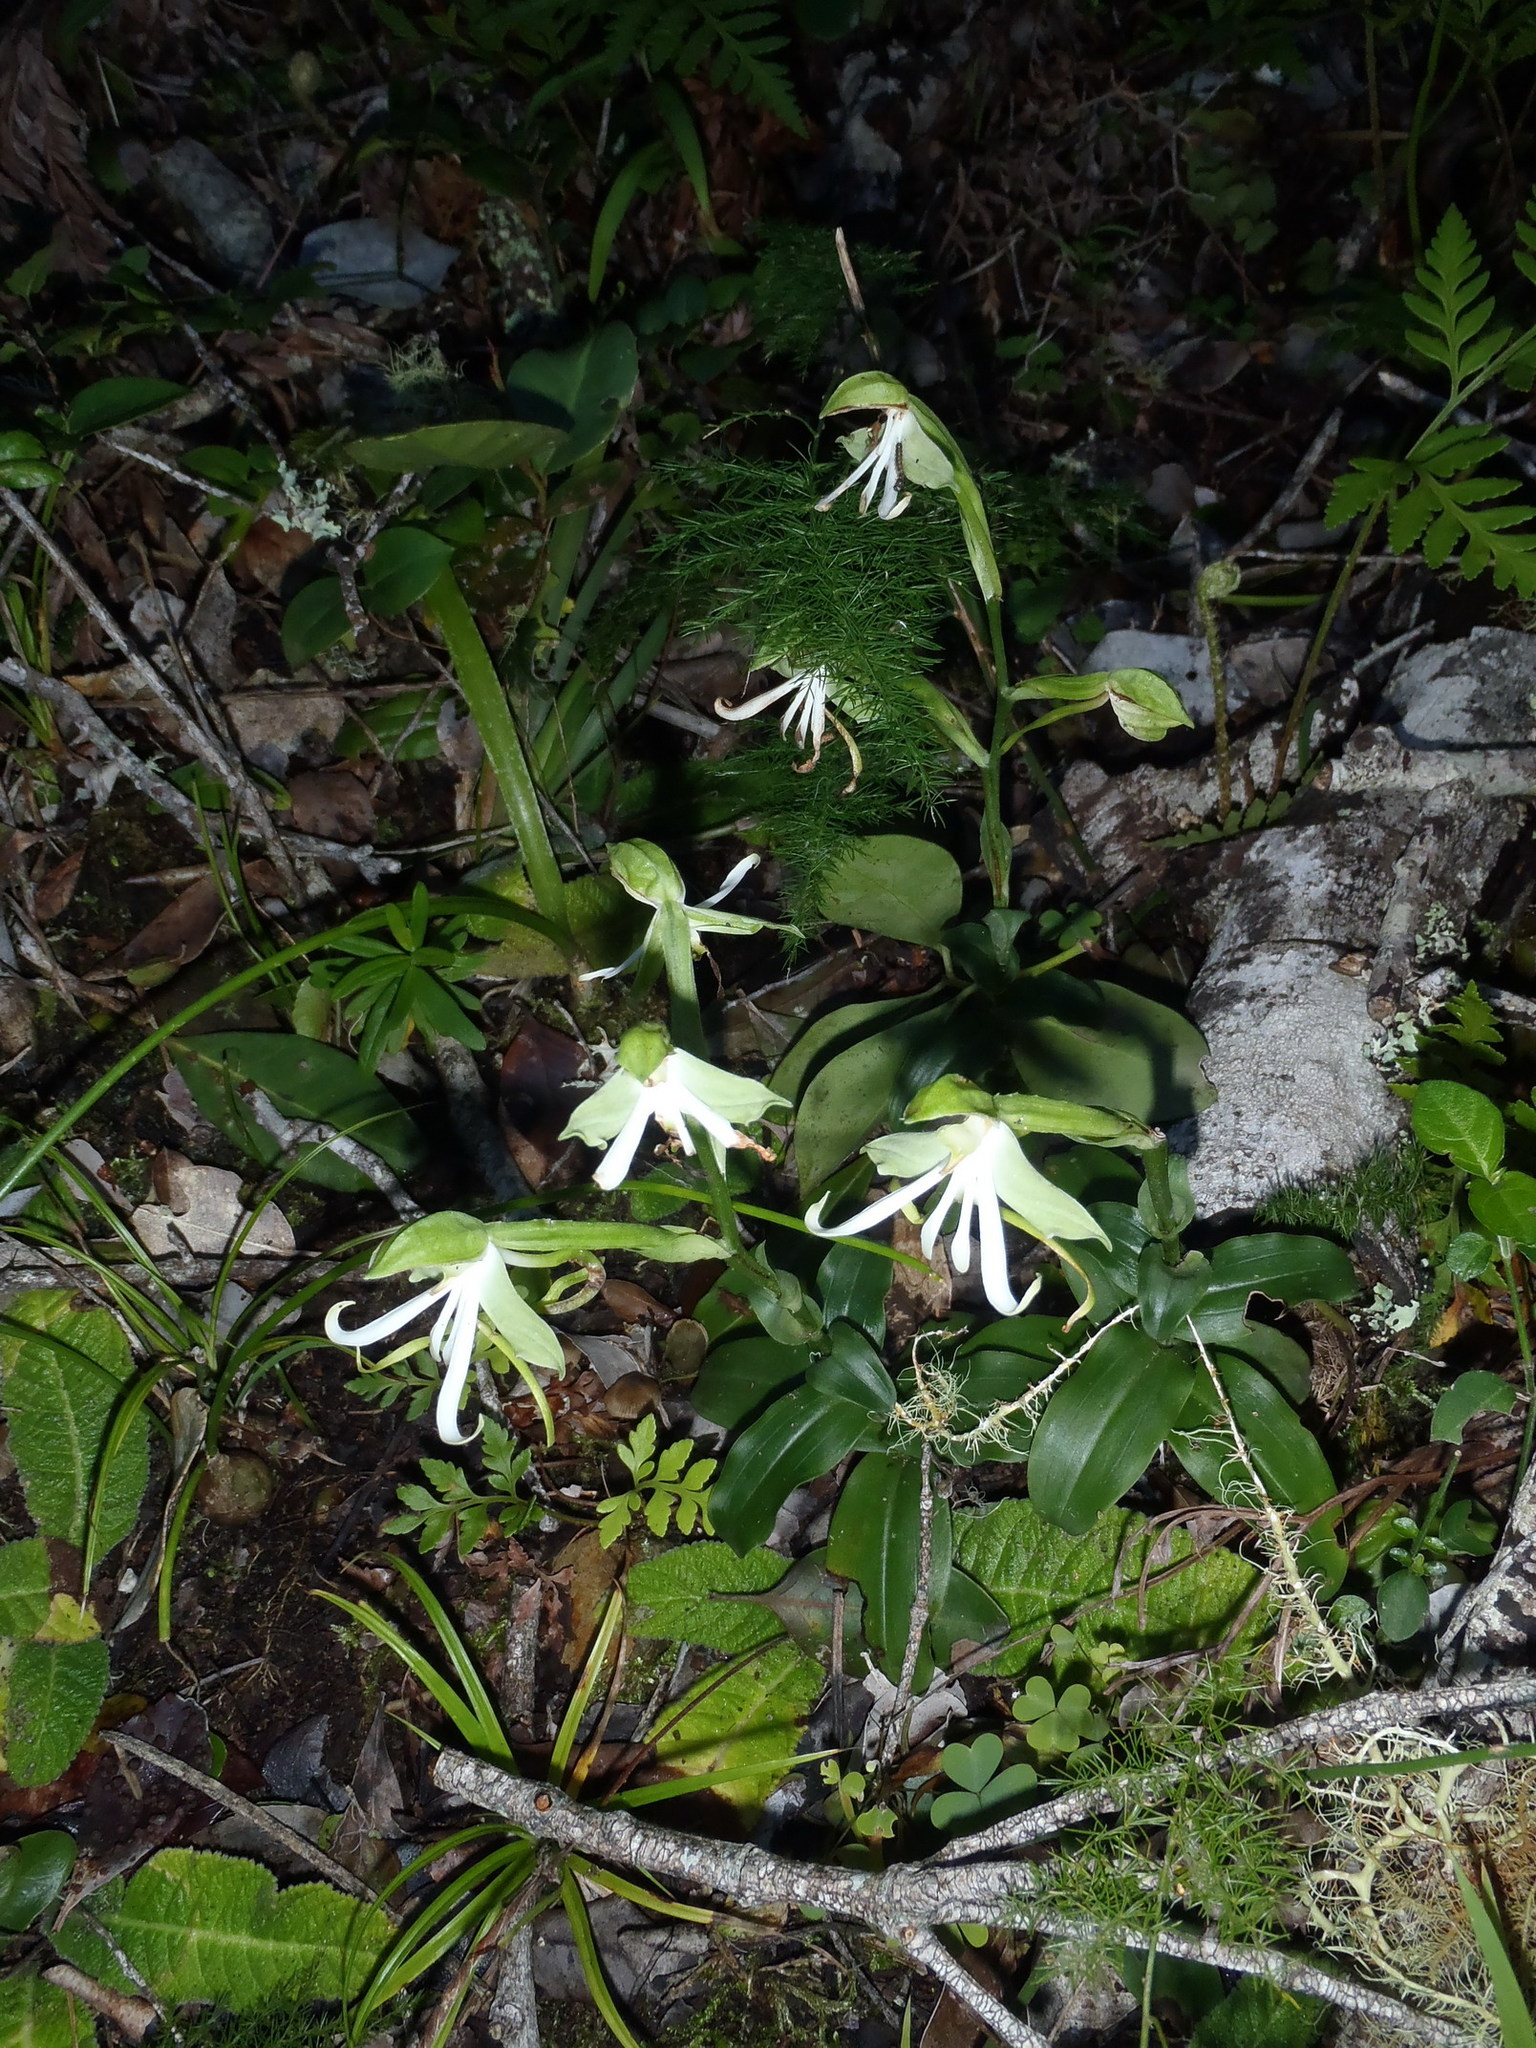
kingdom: Plantae
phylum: Tracheophyta
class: Liliopsida
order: Asparagales
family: Orchidaceae
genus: Bonatea
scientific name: Bonatea speciosa
